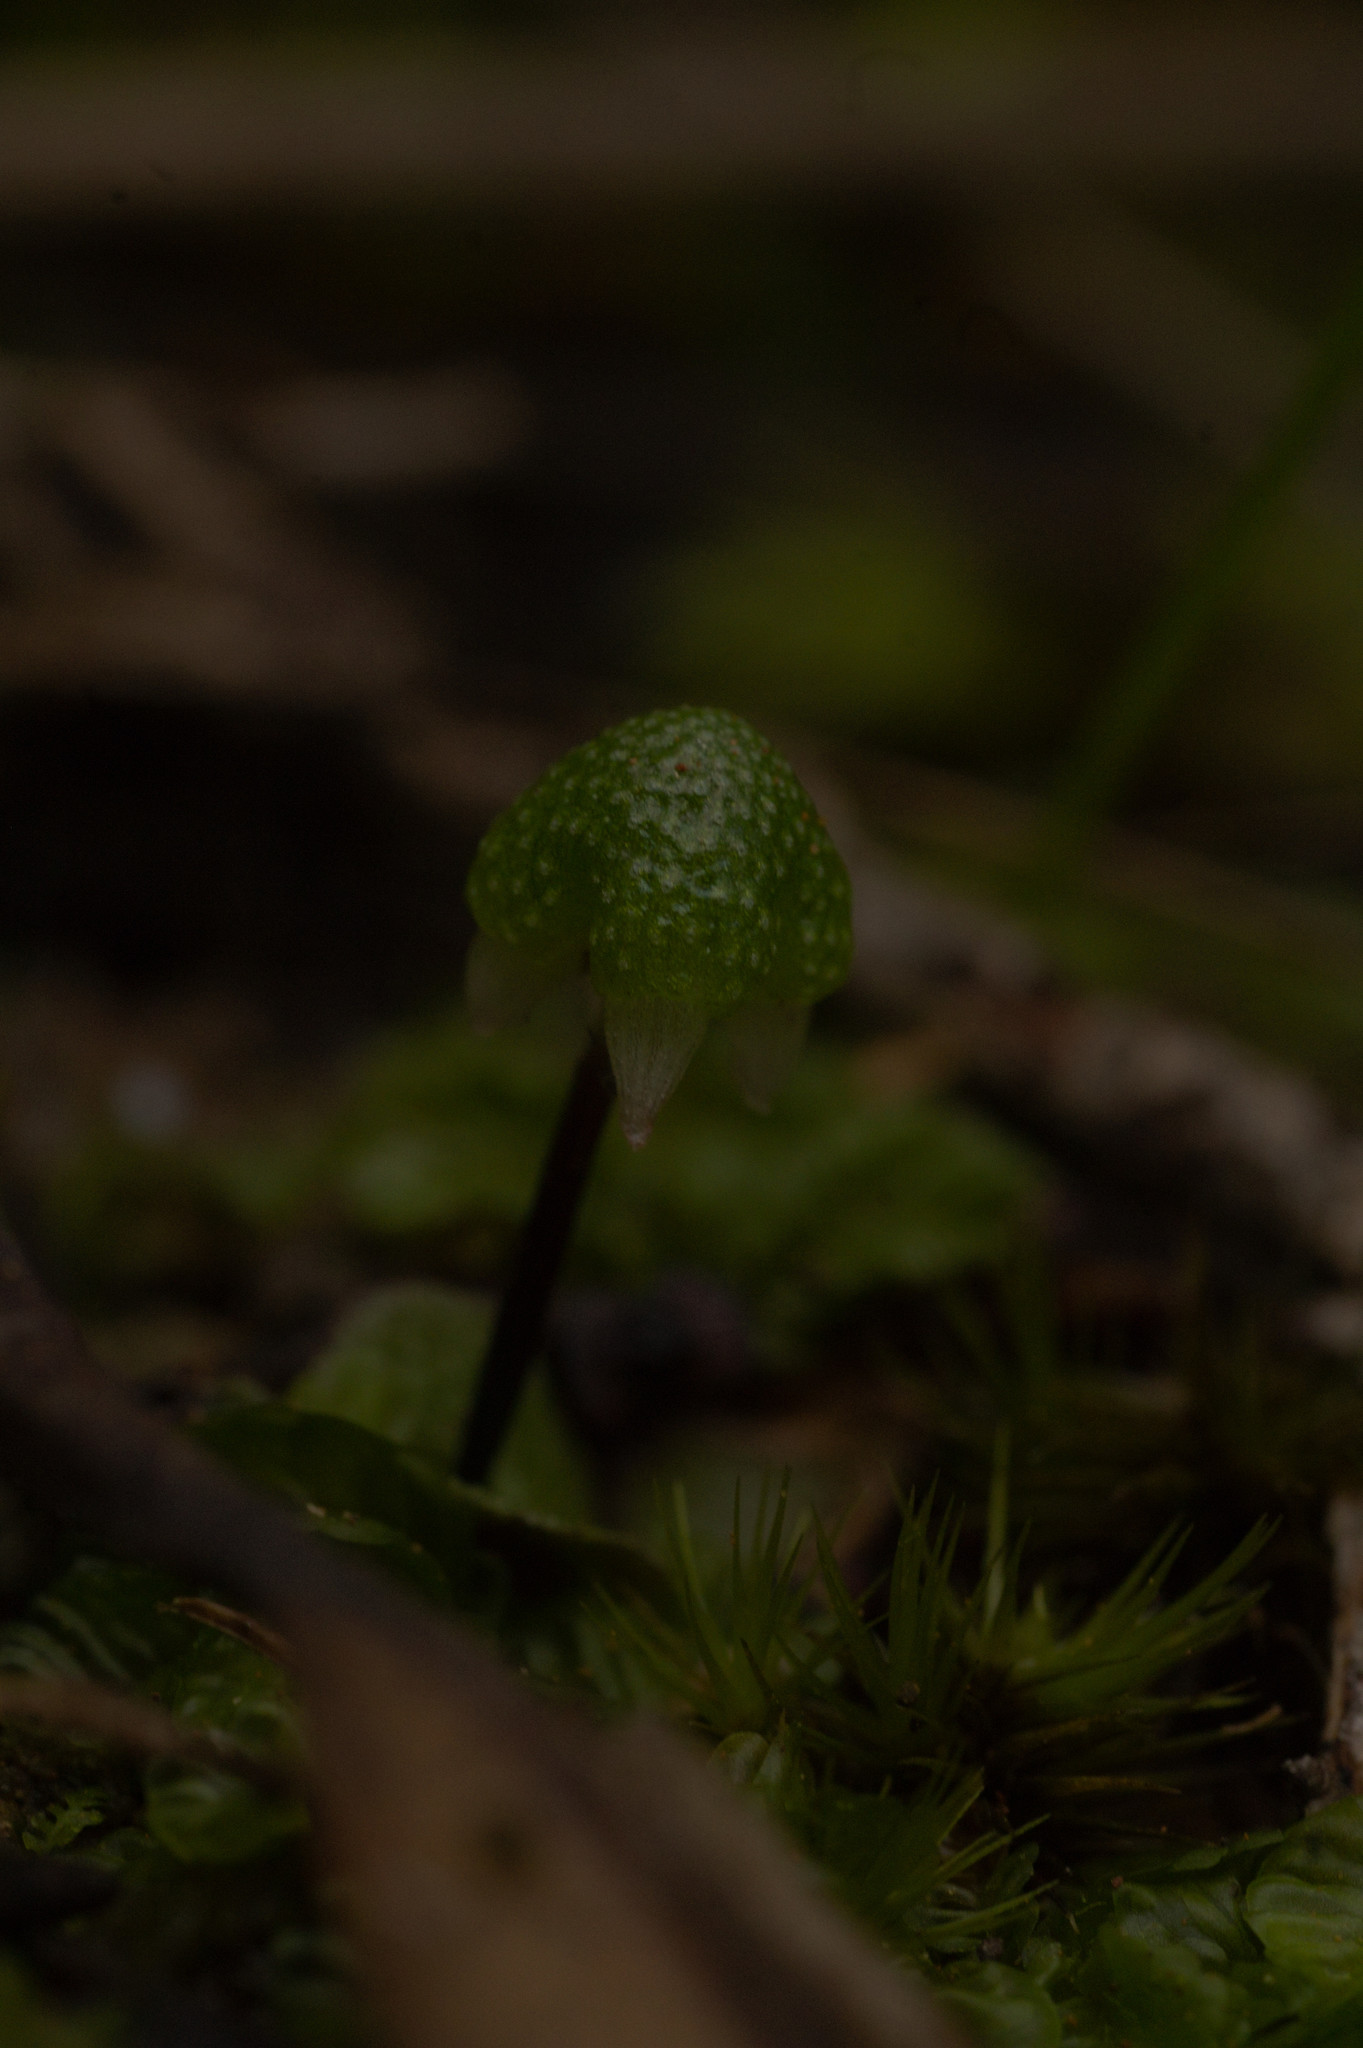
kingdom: Plantae
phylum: Marchantiophyta
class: Marchantiopsida
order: Marchantiales
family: Aytoniaceae
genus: Asterella
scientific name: Asterella drummondii
